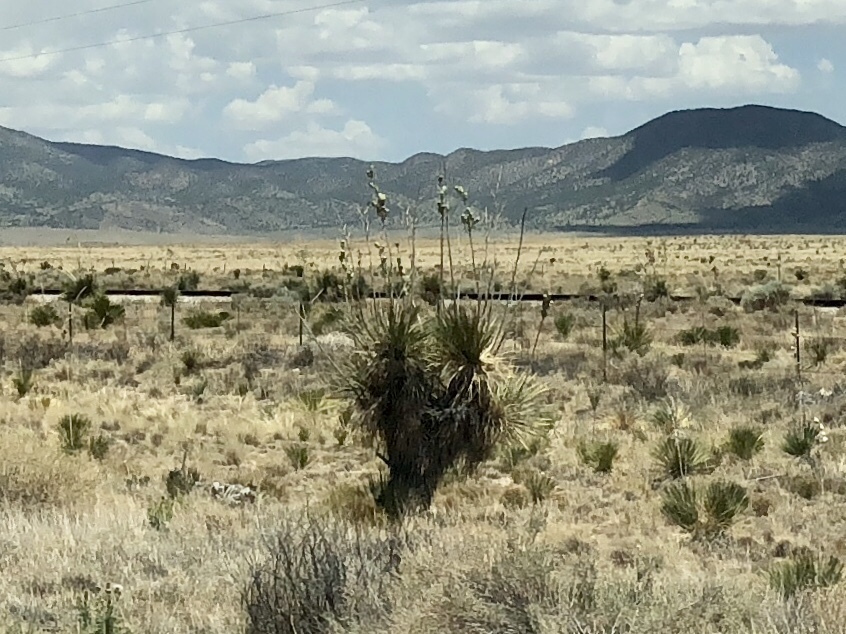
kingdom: Plantae
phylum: Tracheophyta
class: Liliopsida
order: Asparagales
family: Asparagaceae
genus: Yucca
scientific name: Yucca elata
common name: Palmella
